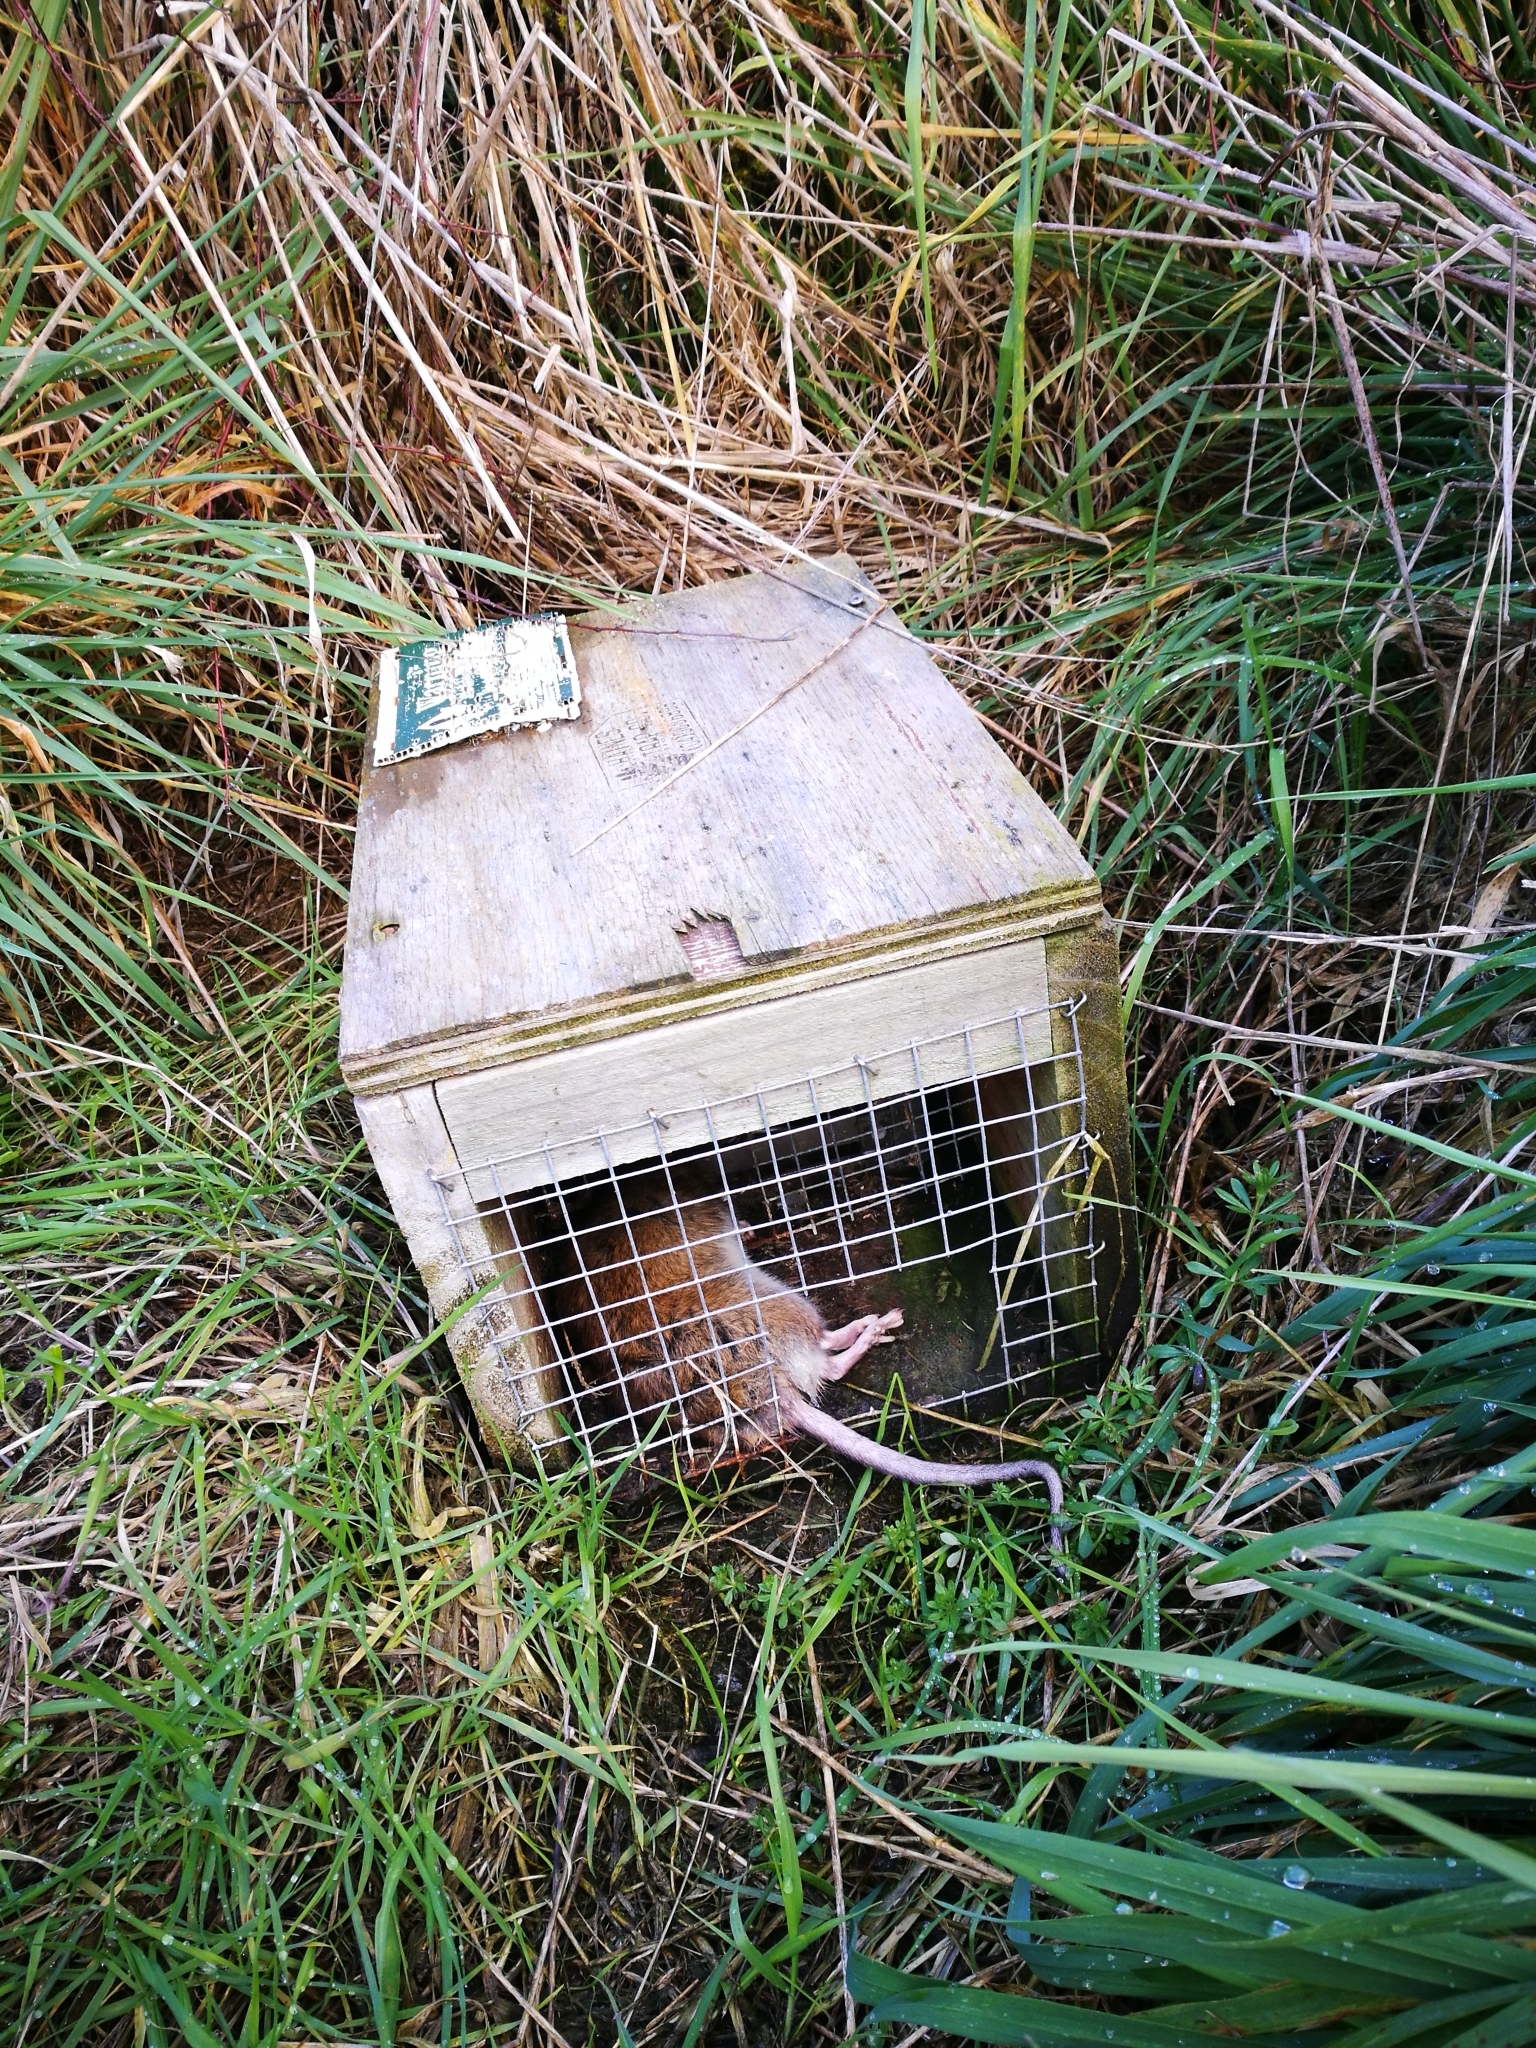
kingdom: Animalia
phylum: Chordata
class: Mammalia
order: Rodentia
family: Muridae
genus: Rattus
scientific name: Rattus norvegicus
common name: Brown rat
